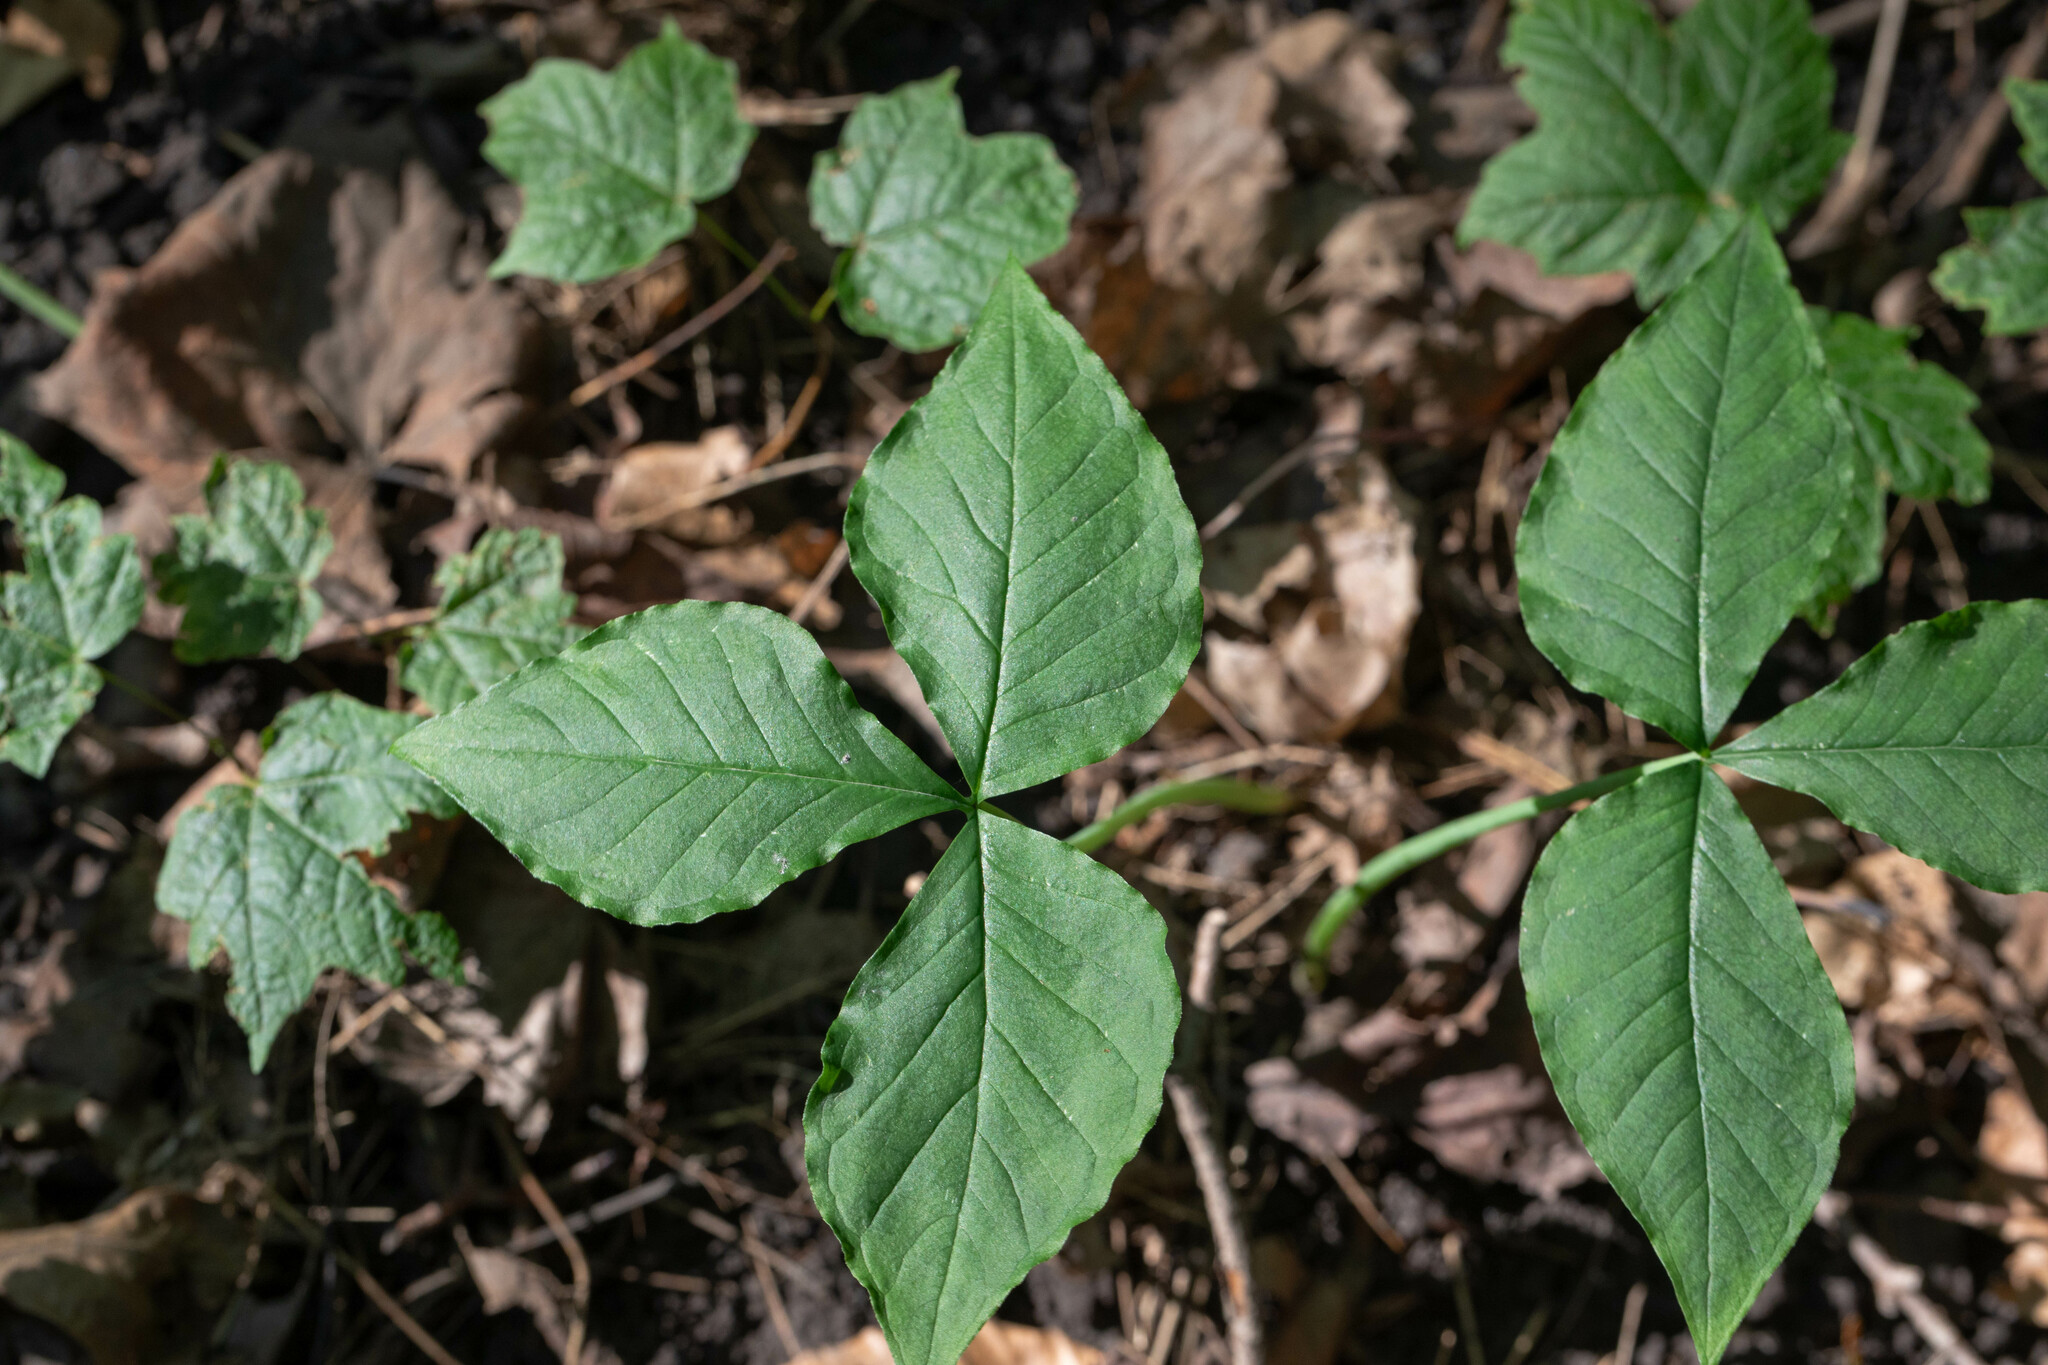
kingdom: Plantae
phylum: Tracheophyta
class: Liliopsida
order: Alismatales
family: Araceae
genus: Arisaema
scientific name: Arisaema triphyllum
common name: Jack-in-the-pulpit
